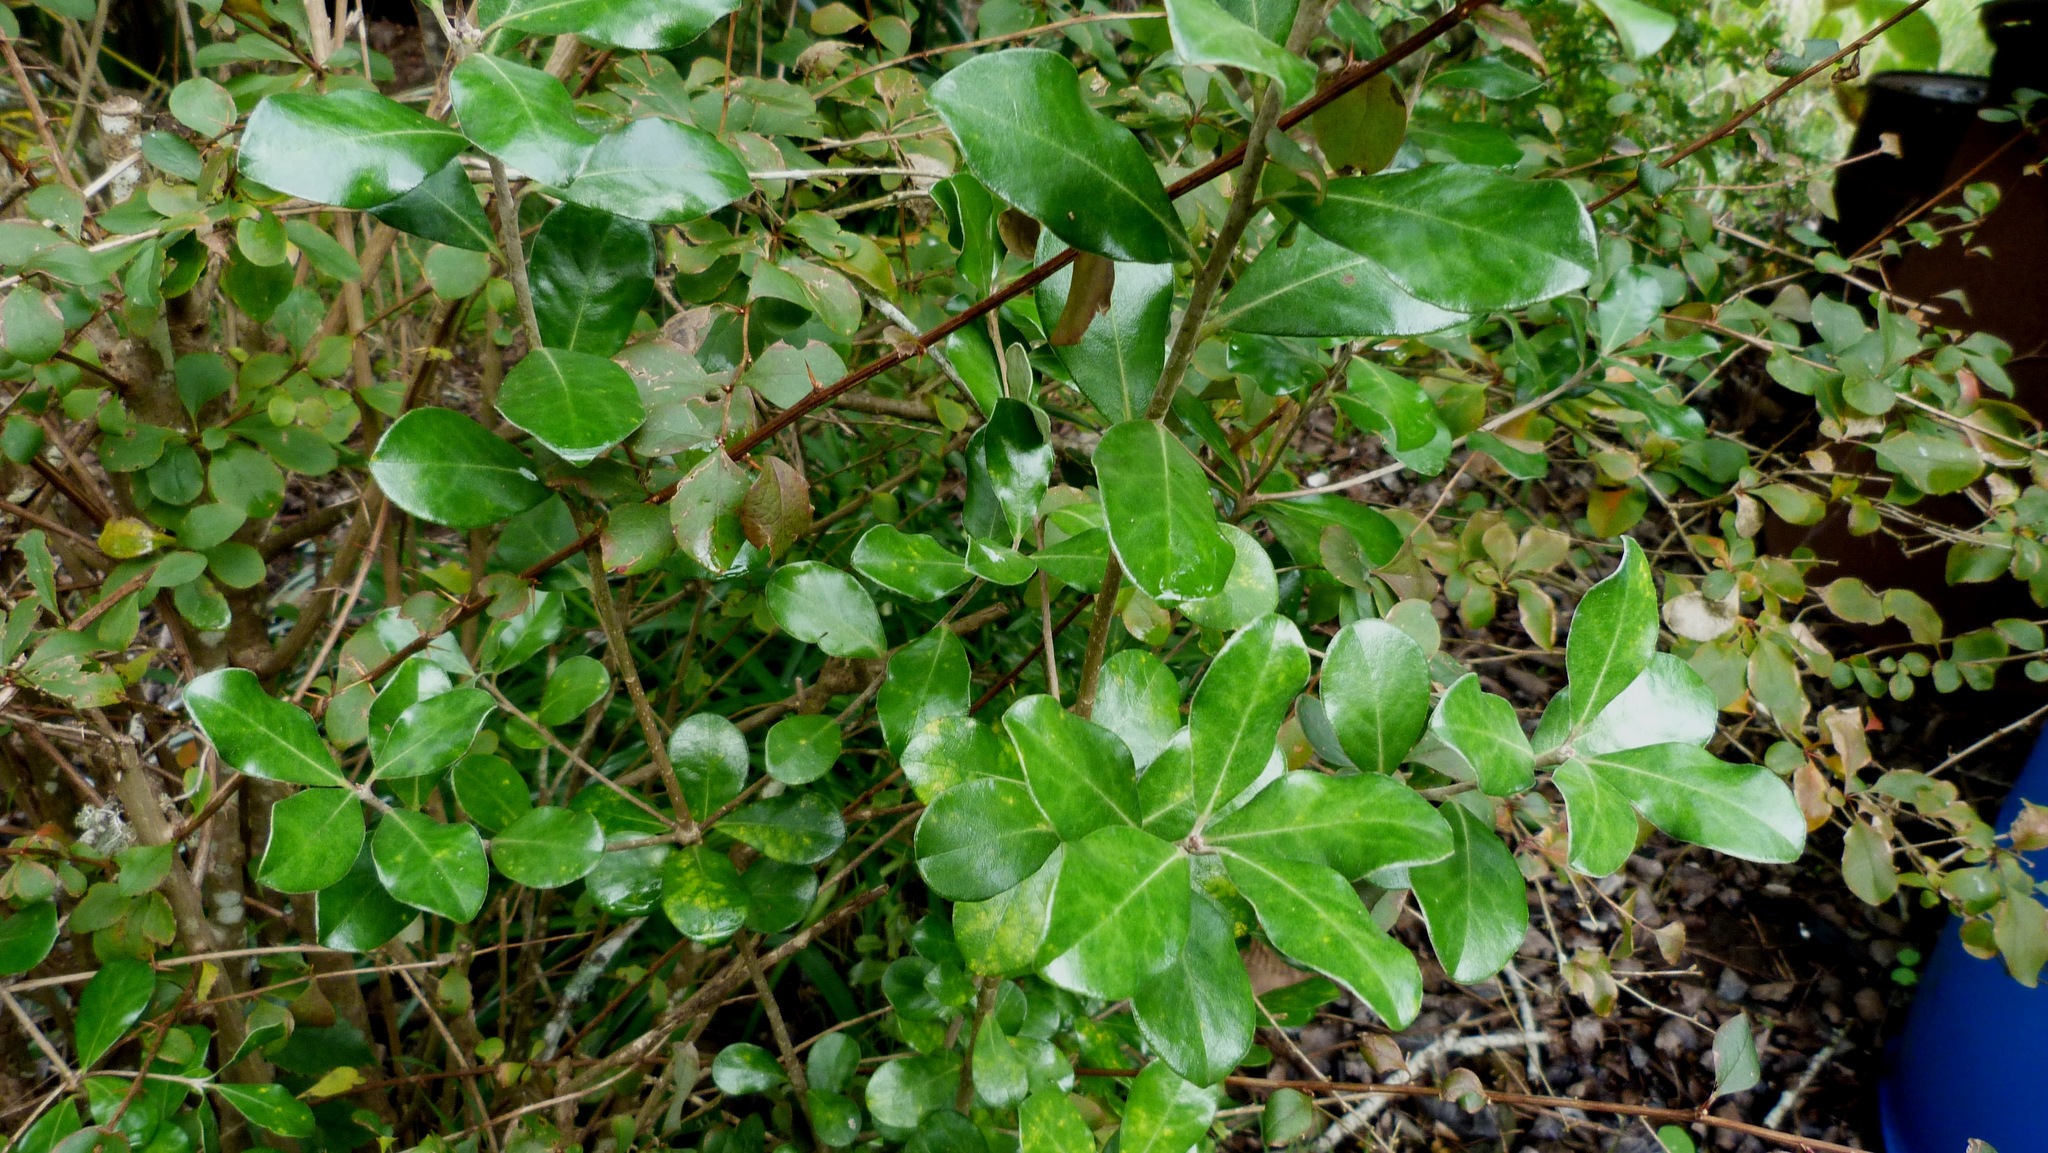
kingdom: Plantae
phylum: Tracheophyta
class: Magnoliopsida
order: Apiales
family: Pittosporaceae
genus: Pittosporum
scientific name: Pittosporum crassifolium
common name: Karo
